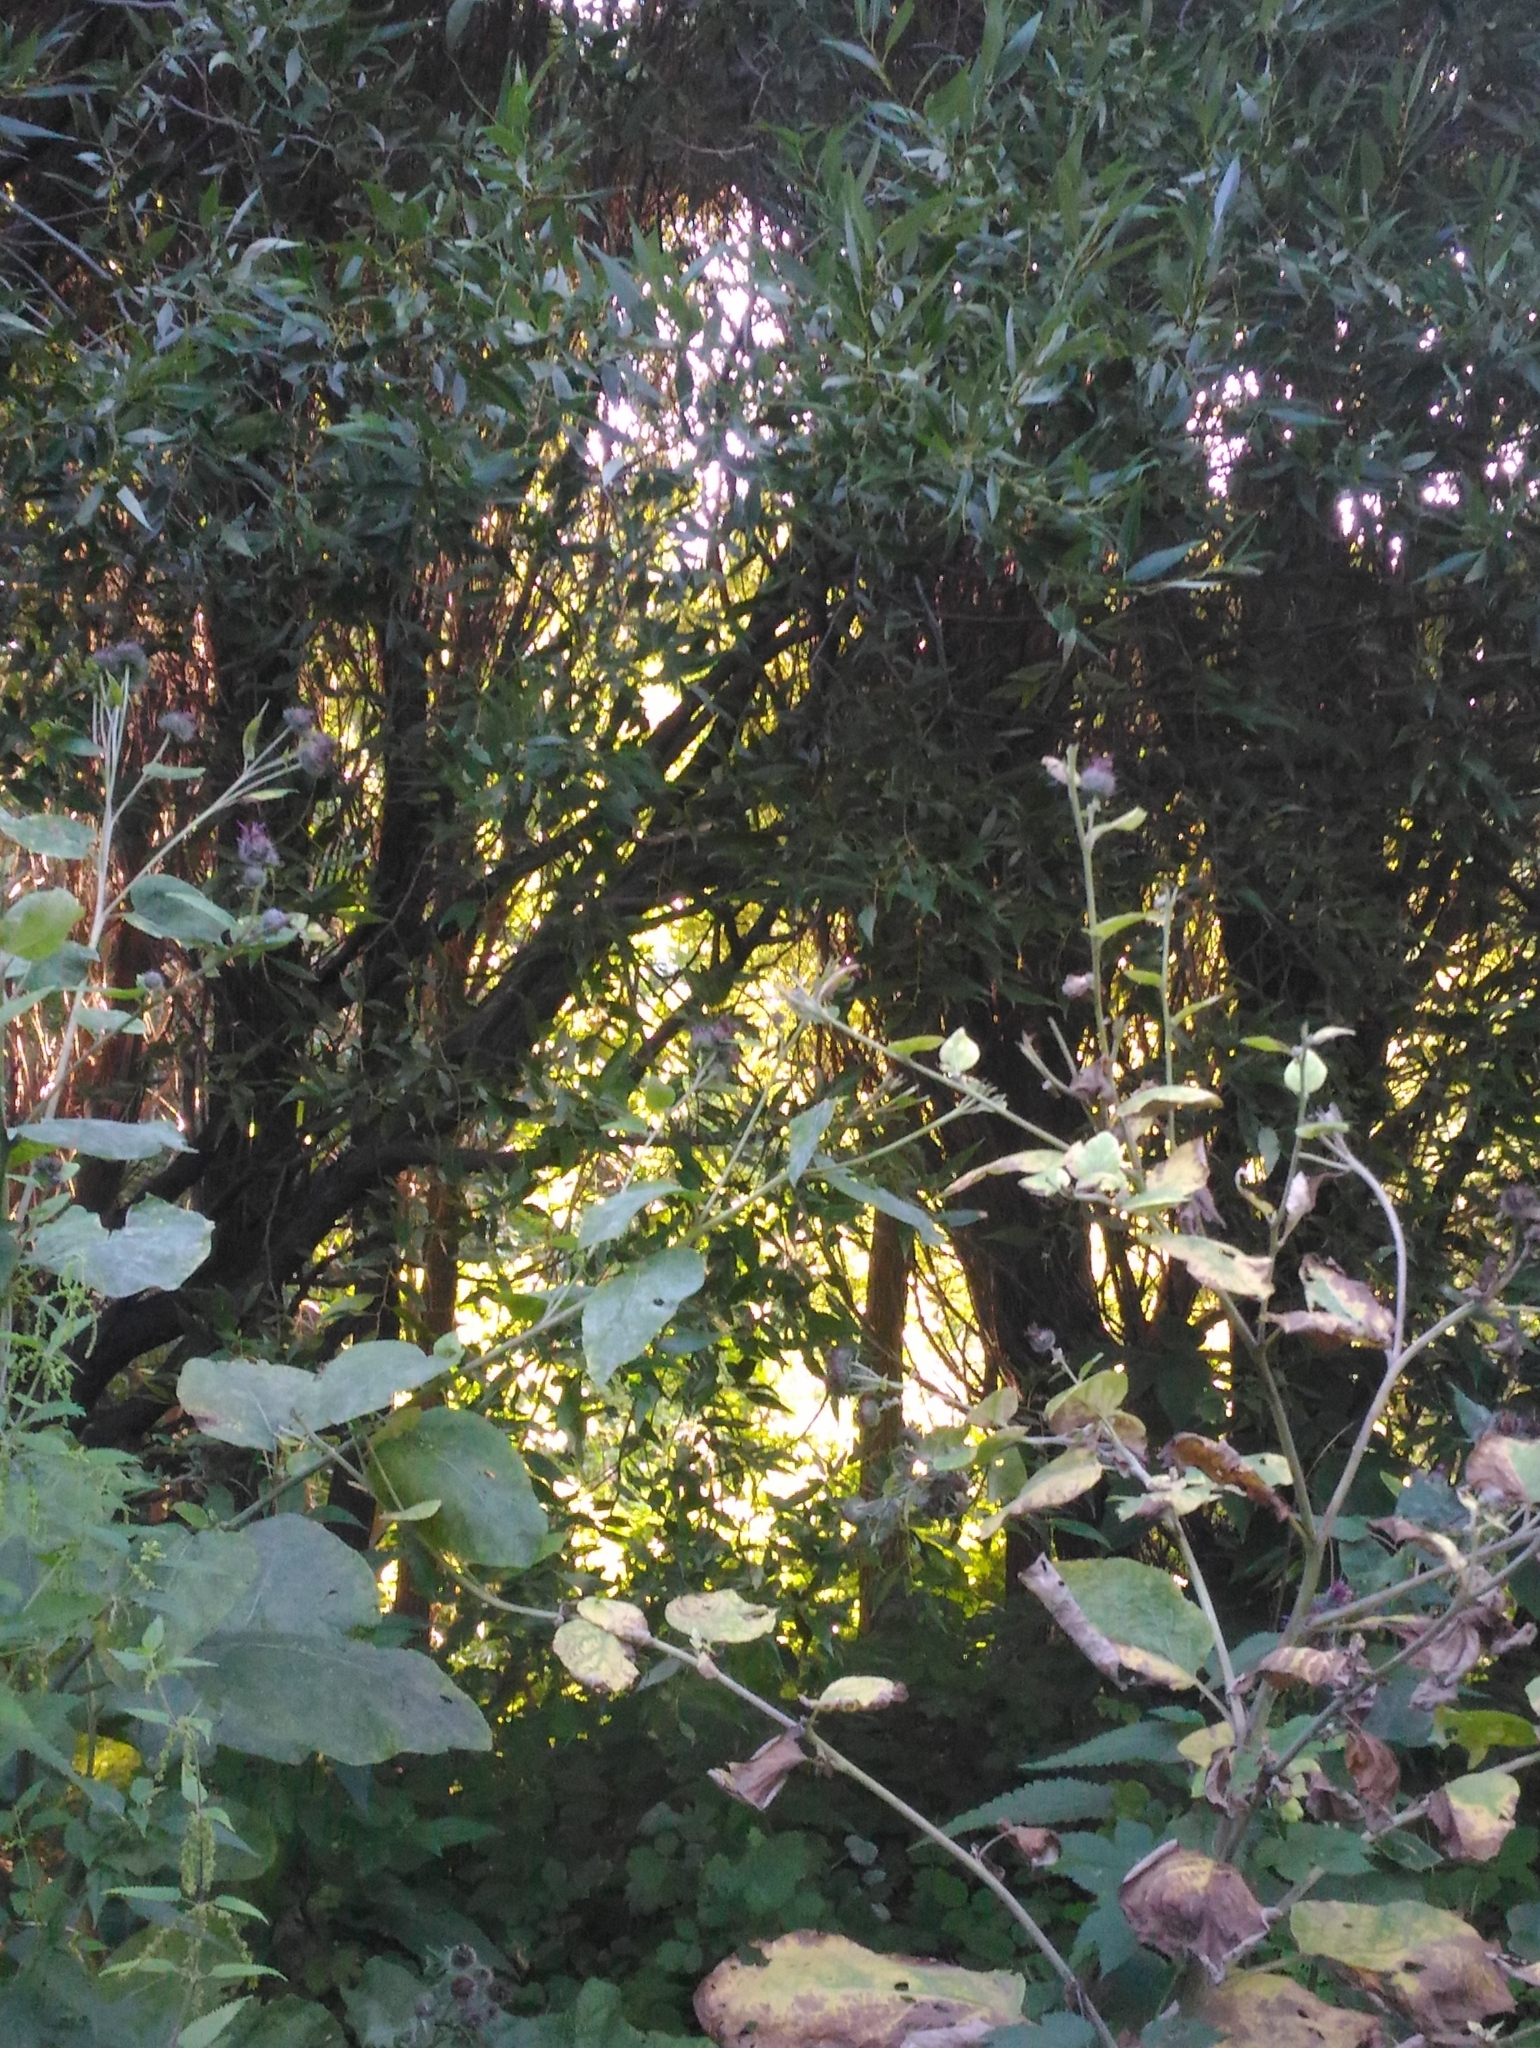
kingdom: Plantae
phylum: Tracheophyta
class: Magnoliopsida
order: Asterales
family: Asteraceae
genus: Arctium
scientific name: Arctium tomentosum
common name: Woolly burdock
